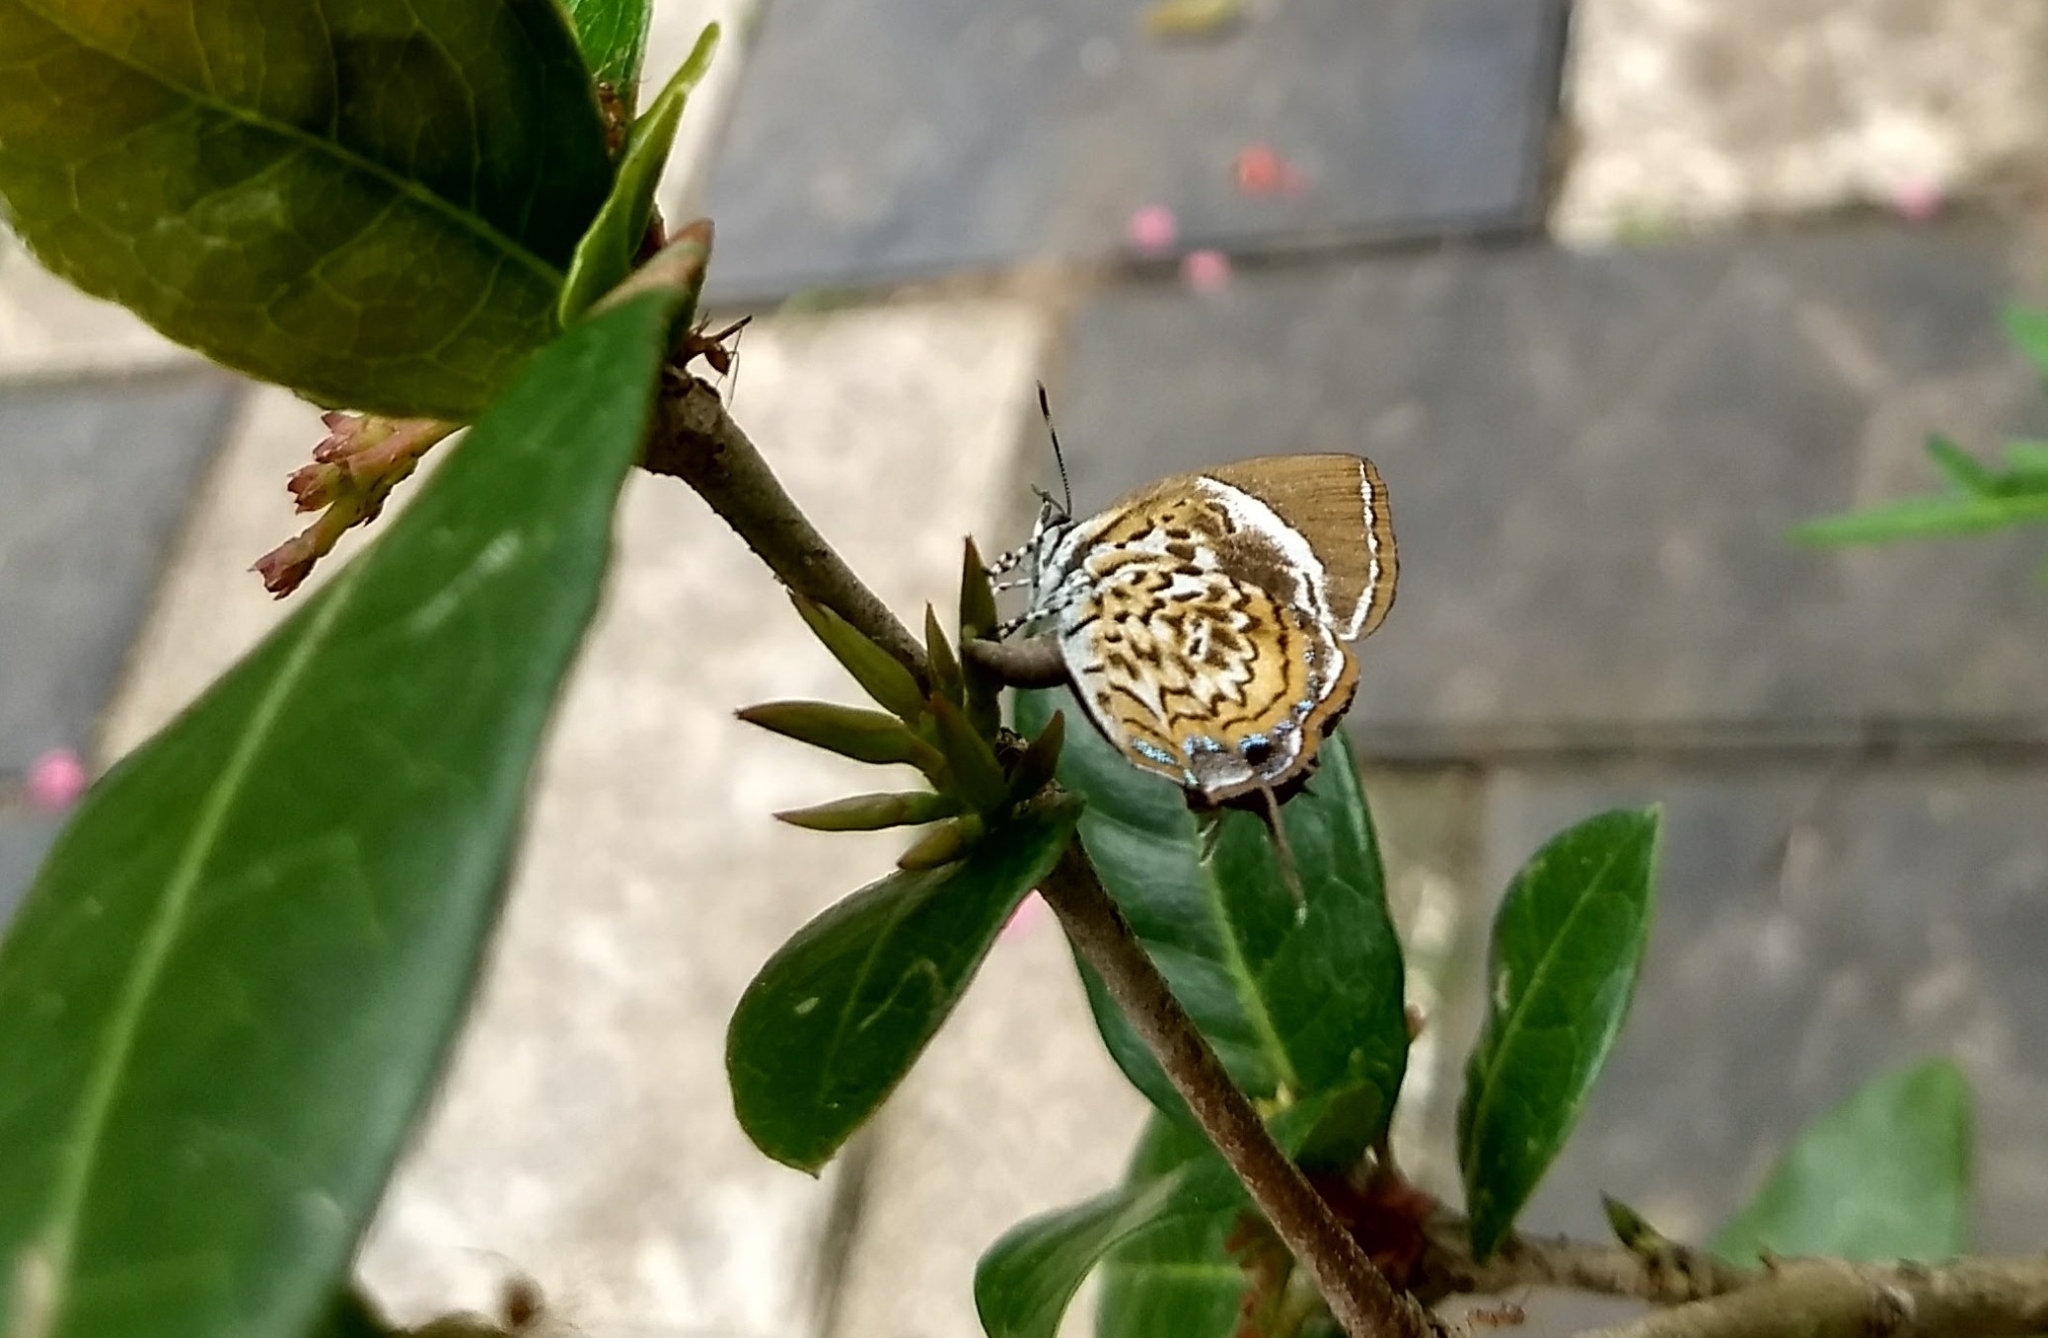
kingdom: Animalia
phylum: Arthropoda
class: Insecta
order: Lepidoptera
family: Lycaenidae
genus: Rathinda
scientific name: Rathinda amor
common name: Monkey puzzle
